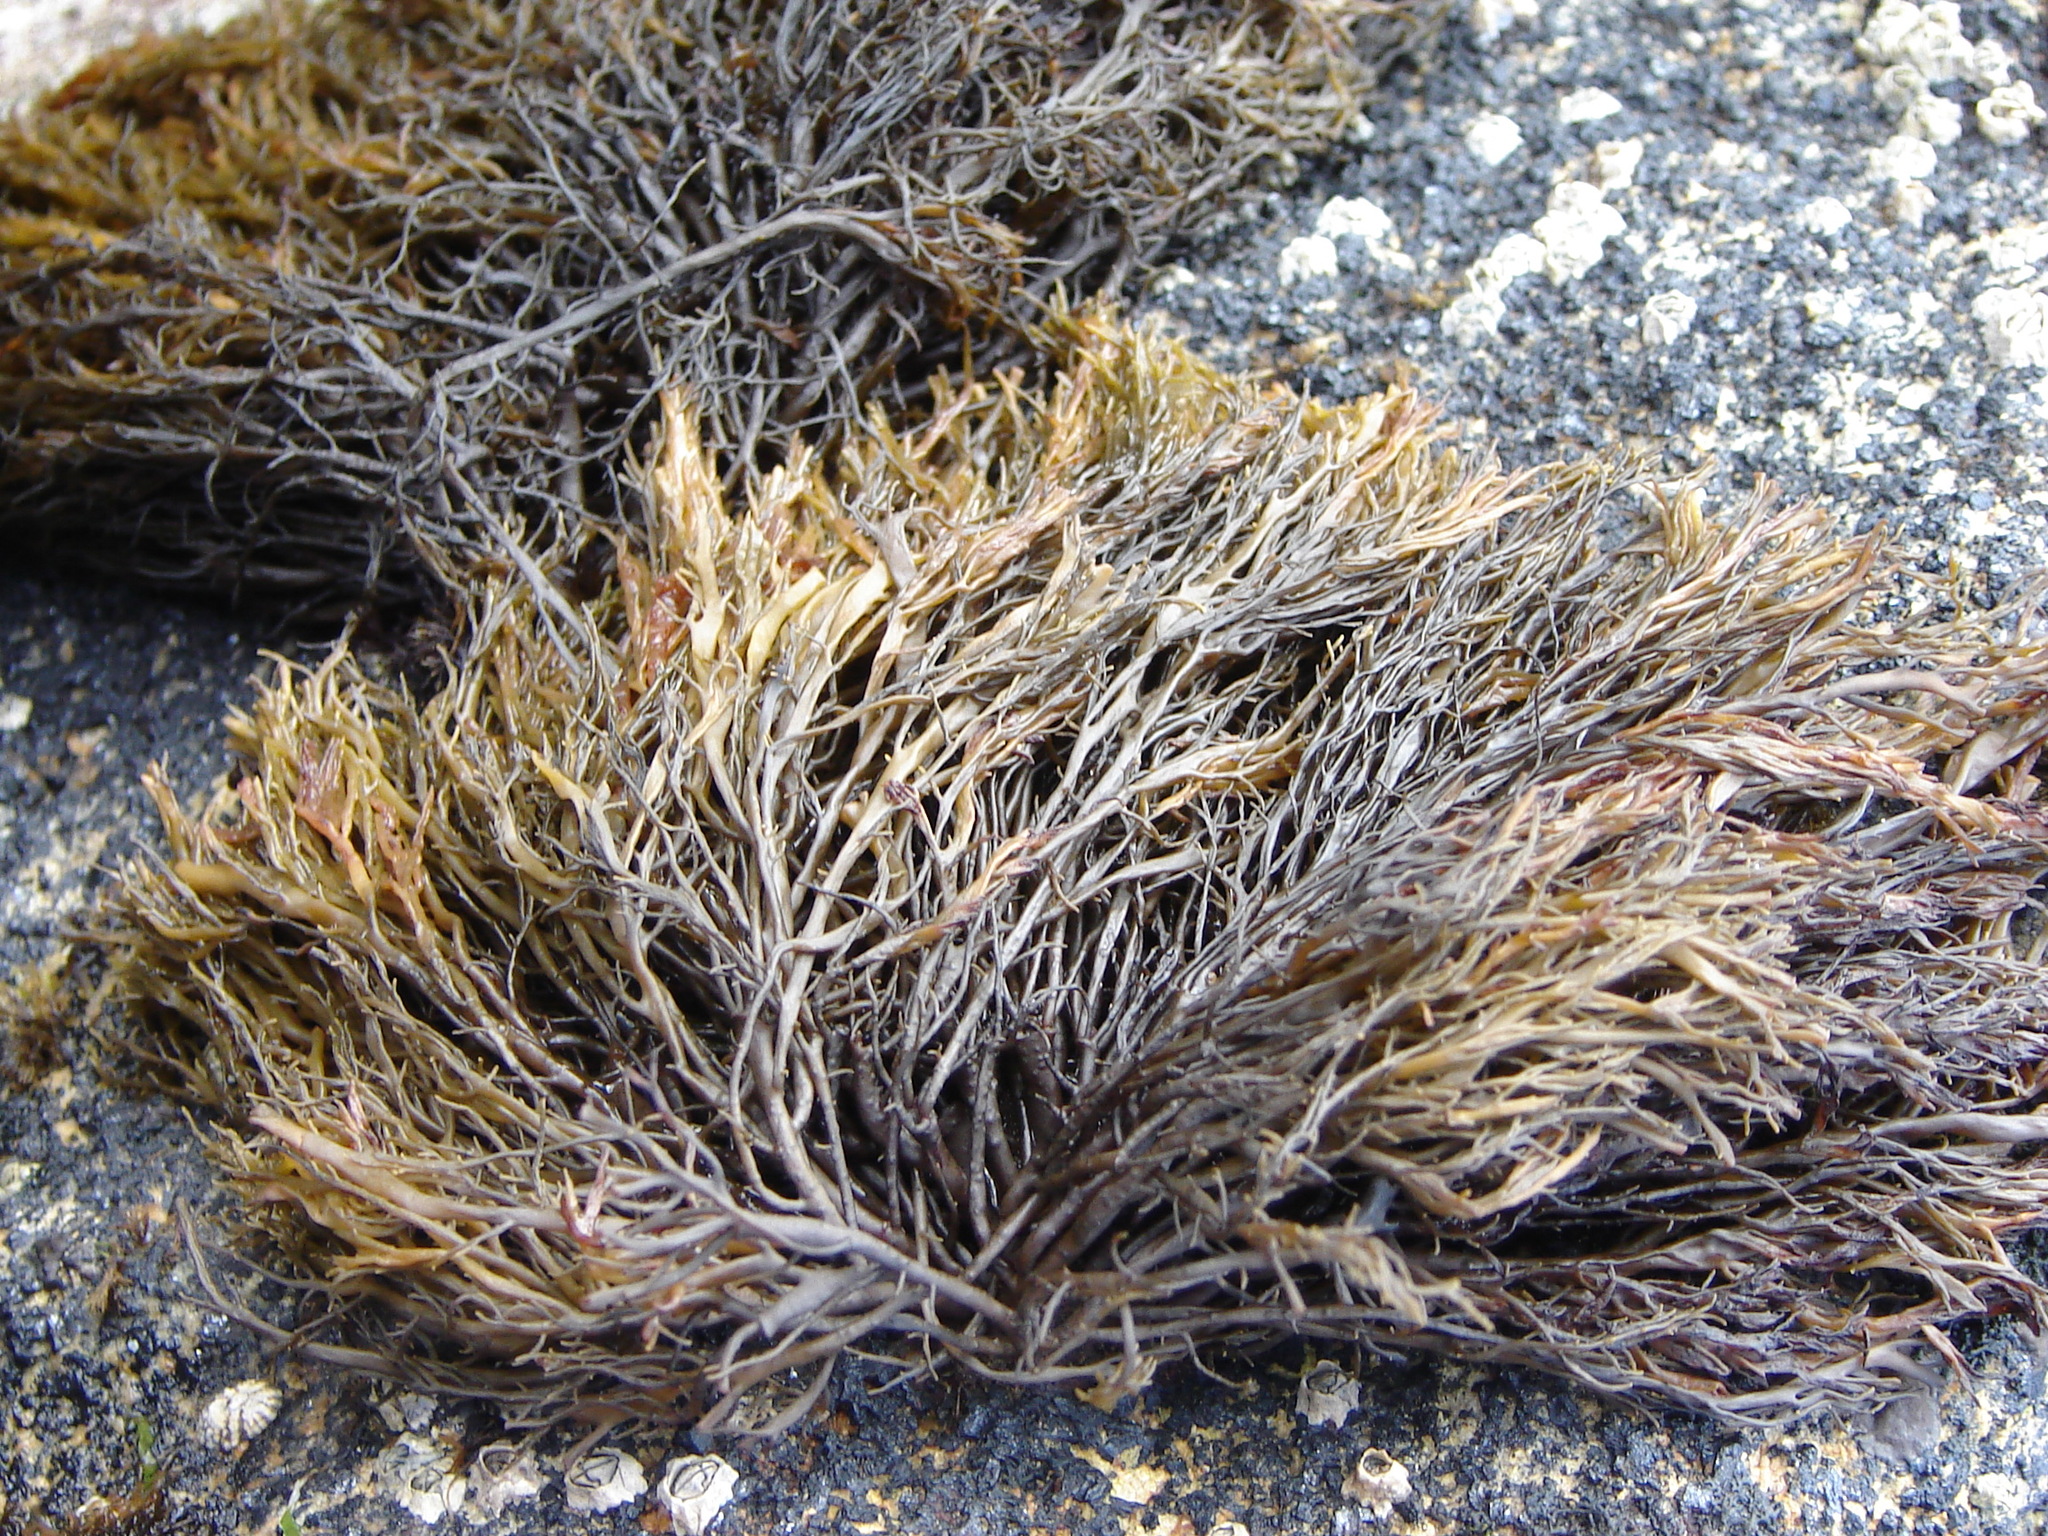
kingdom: Chromista
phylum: Ochrophyta
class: Phaeophyceae
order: Scytothamnales
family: Scytothamnaceae
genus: Scytothamnus
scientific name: Scytothamnus australis
